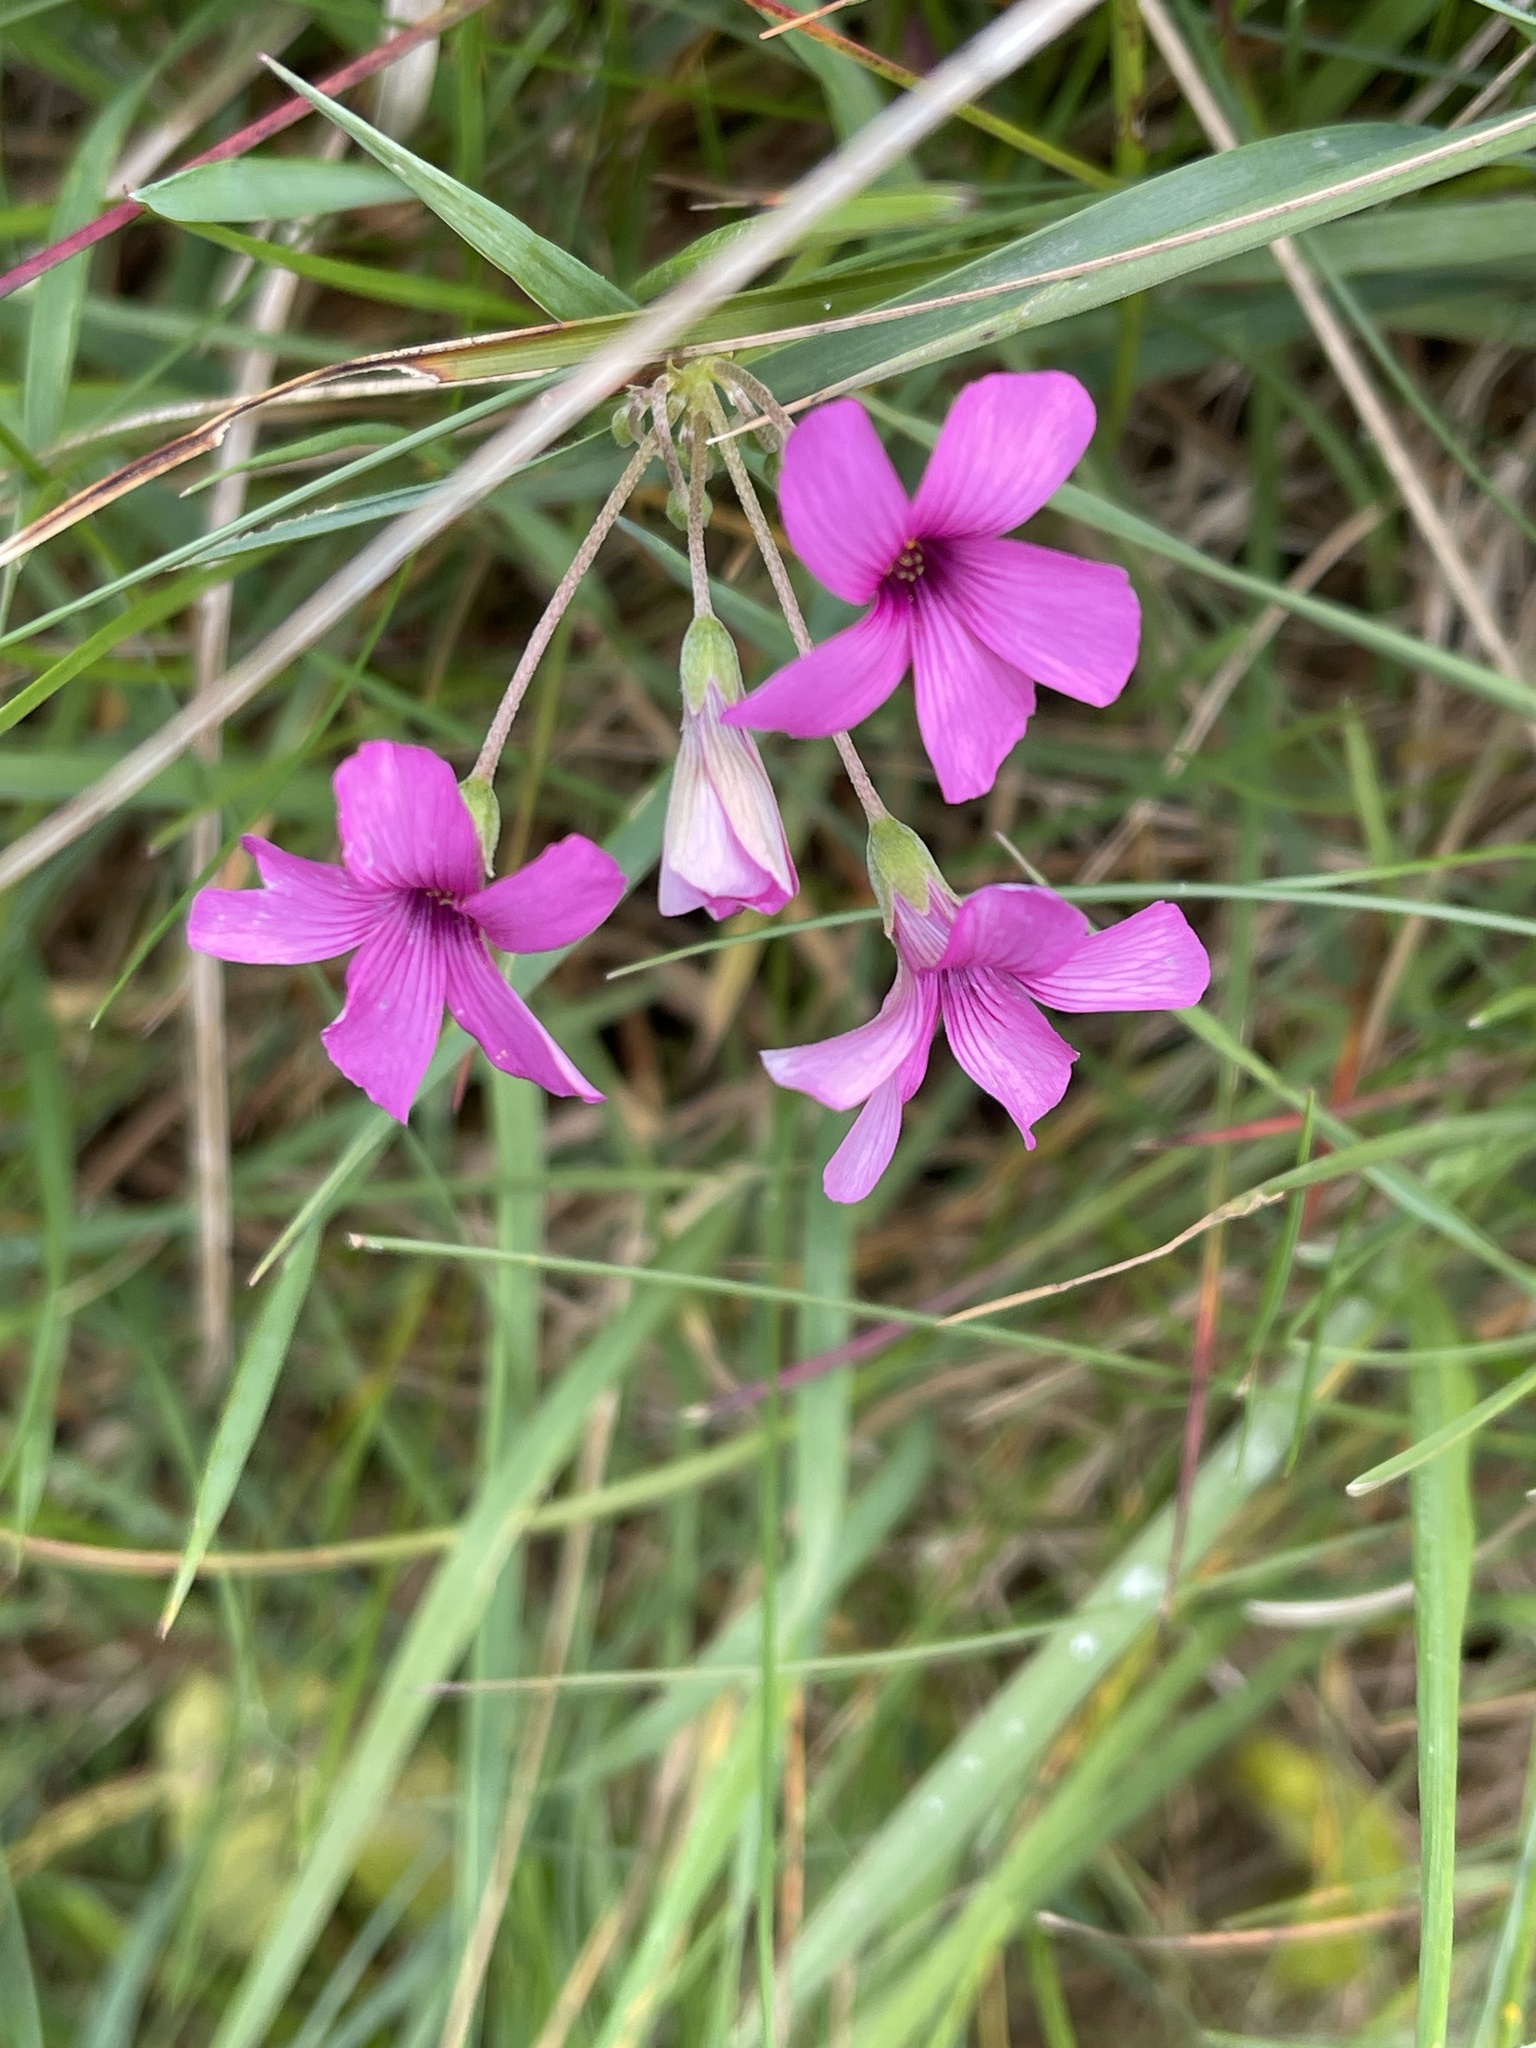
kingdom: Plantae
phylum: Tracheophyta
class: Magnoliopsida
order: Oxalidales
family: Oxalidaceae
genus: Oxalis
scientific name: Oxalis articulata
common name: Pink-sorrel
